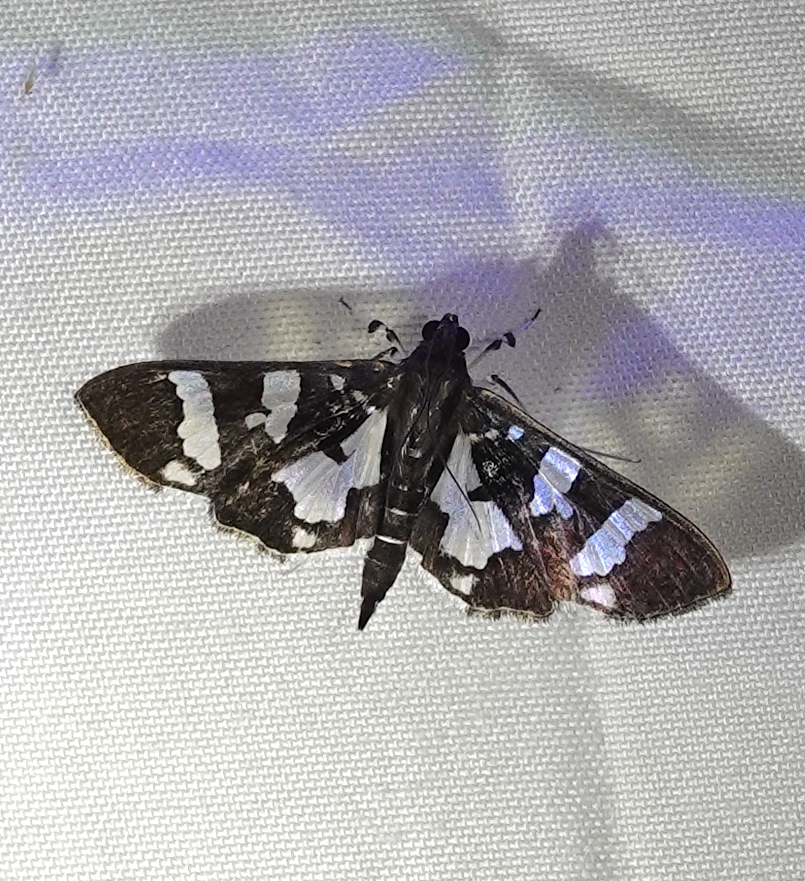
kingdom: Animalia
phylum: Arthropoda
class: Insecta
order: Lepidoptera
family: Crambidae
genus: Desmia
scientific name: Desmia bajulalis
